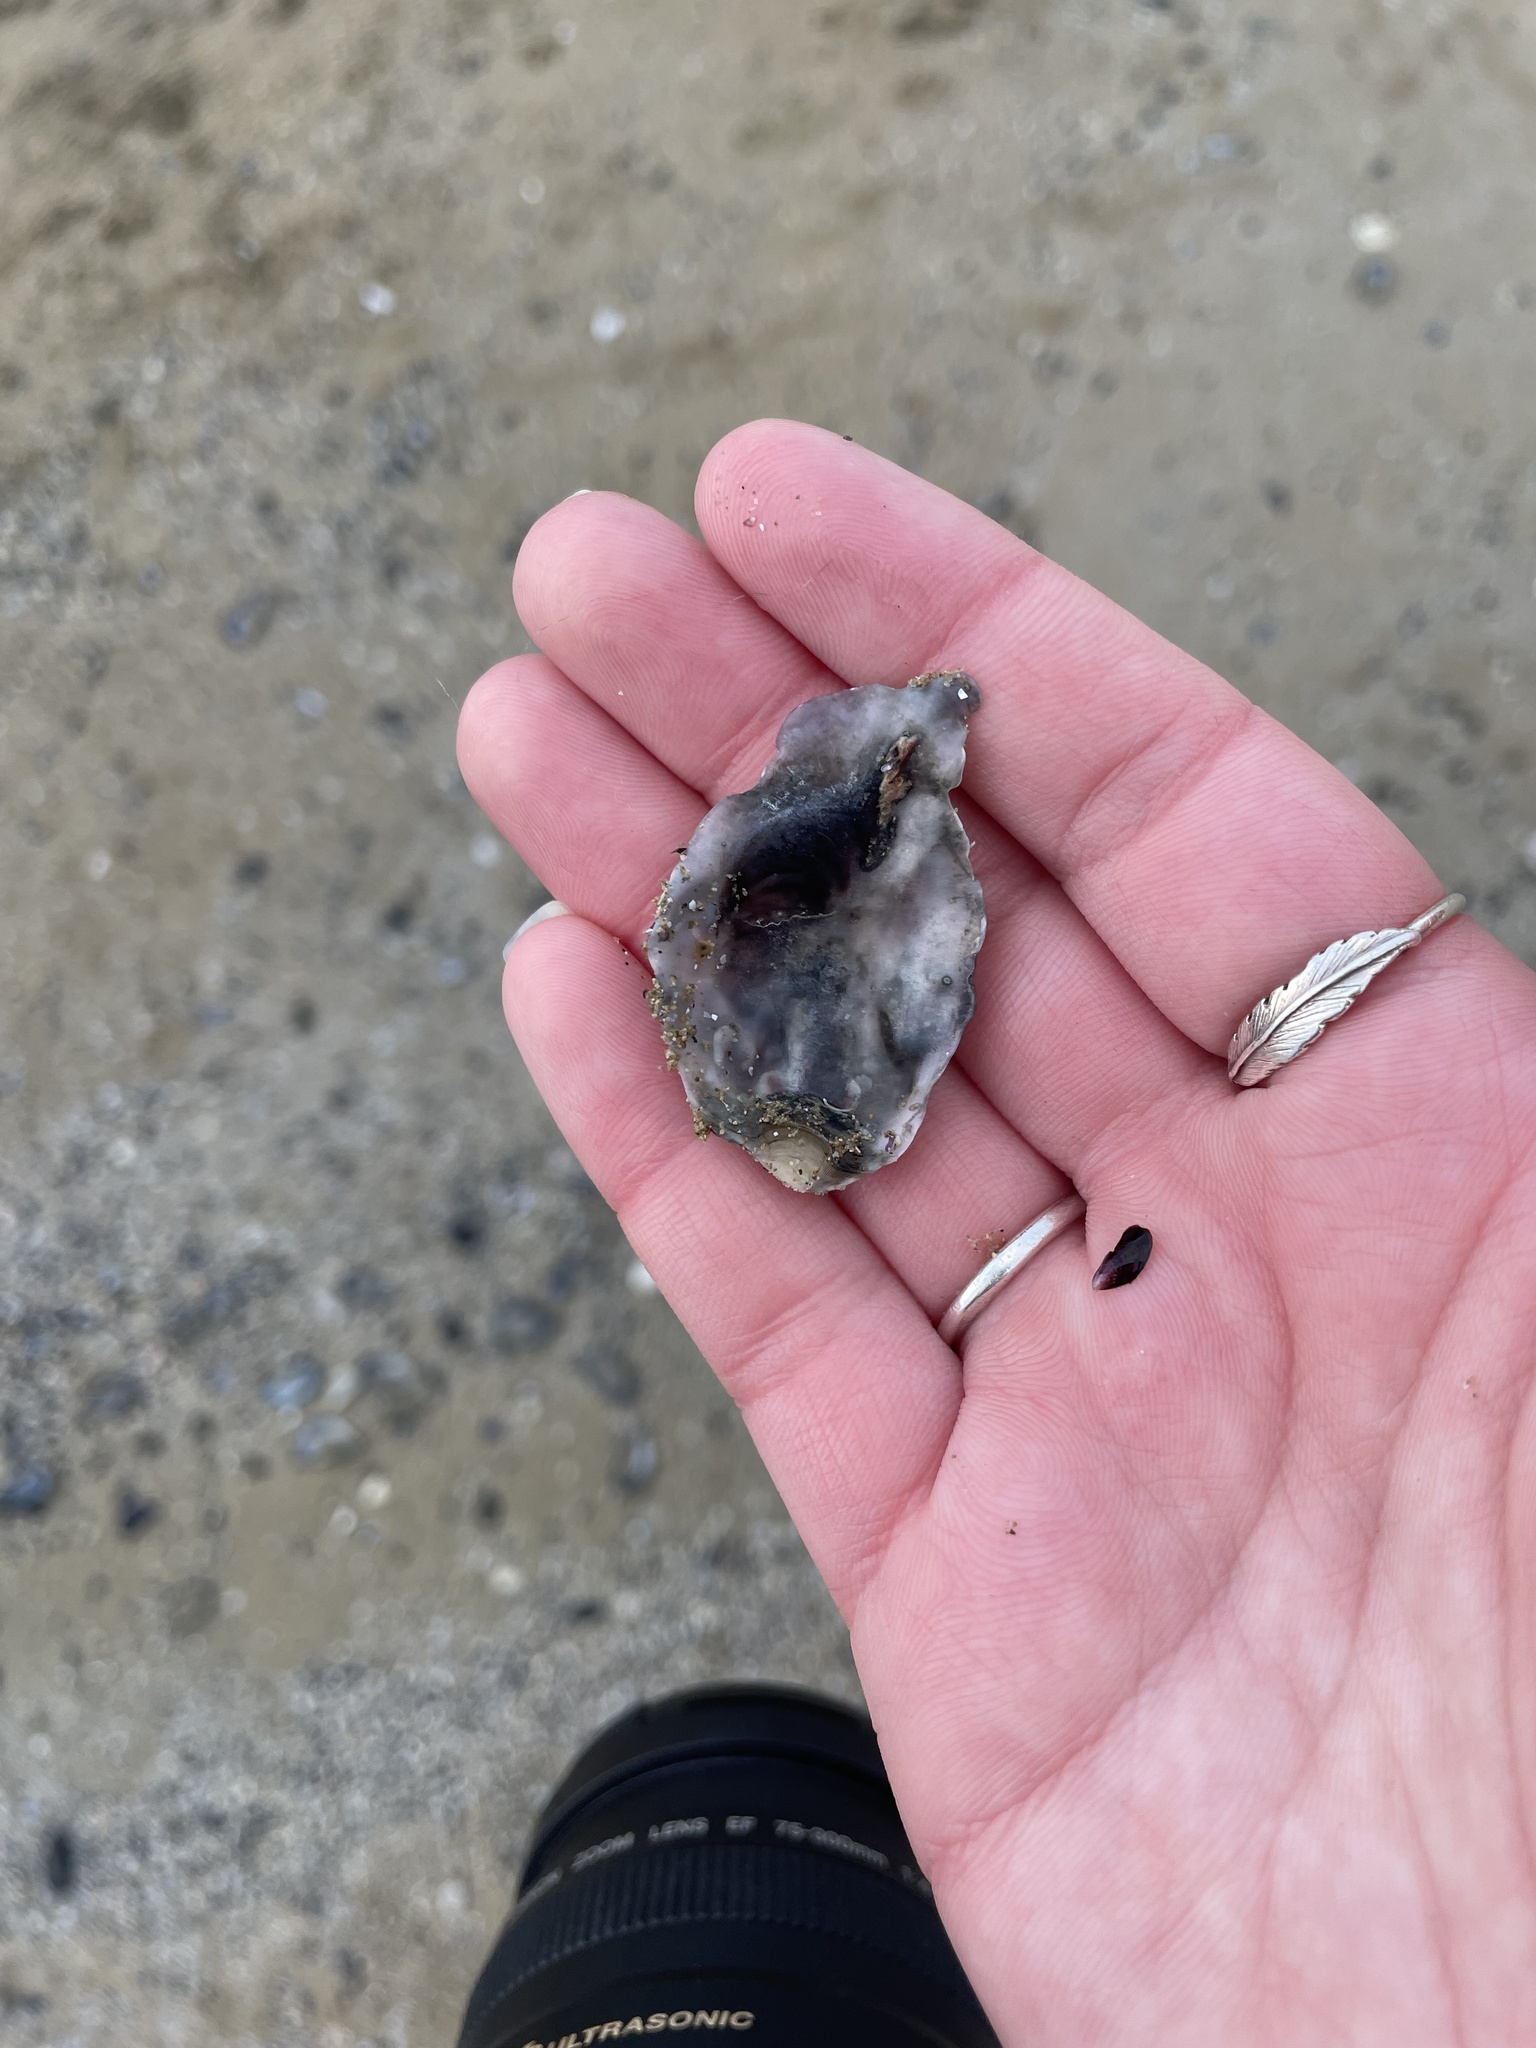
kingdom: Animalia
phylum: Mollusca
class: Bivalvia
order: Ostreida
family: Ostreidae
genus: Magallana
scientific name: Magallana gigas
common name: Pacific oyster
